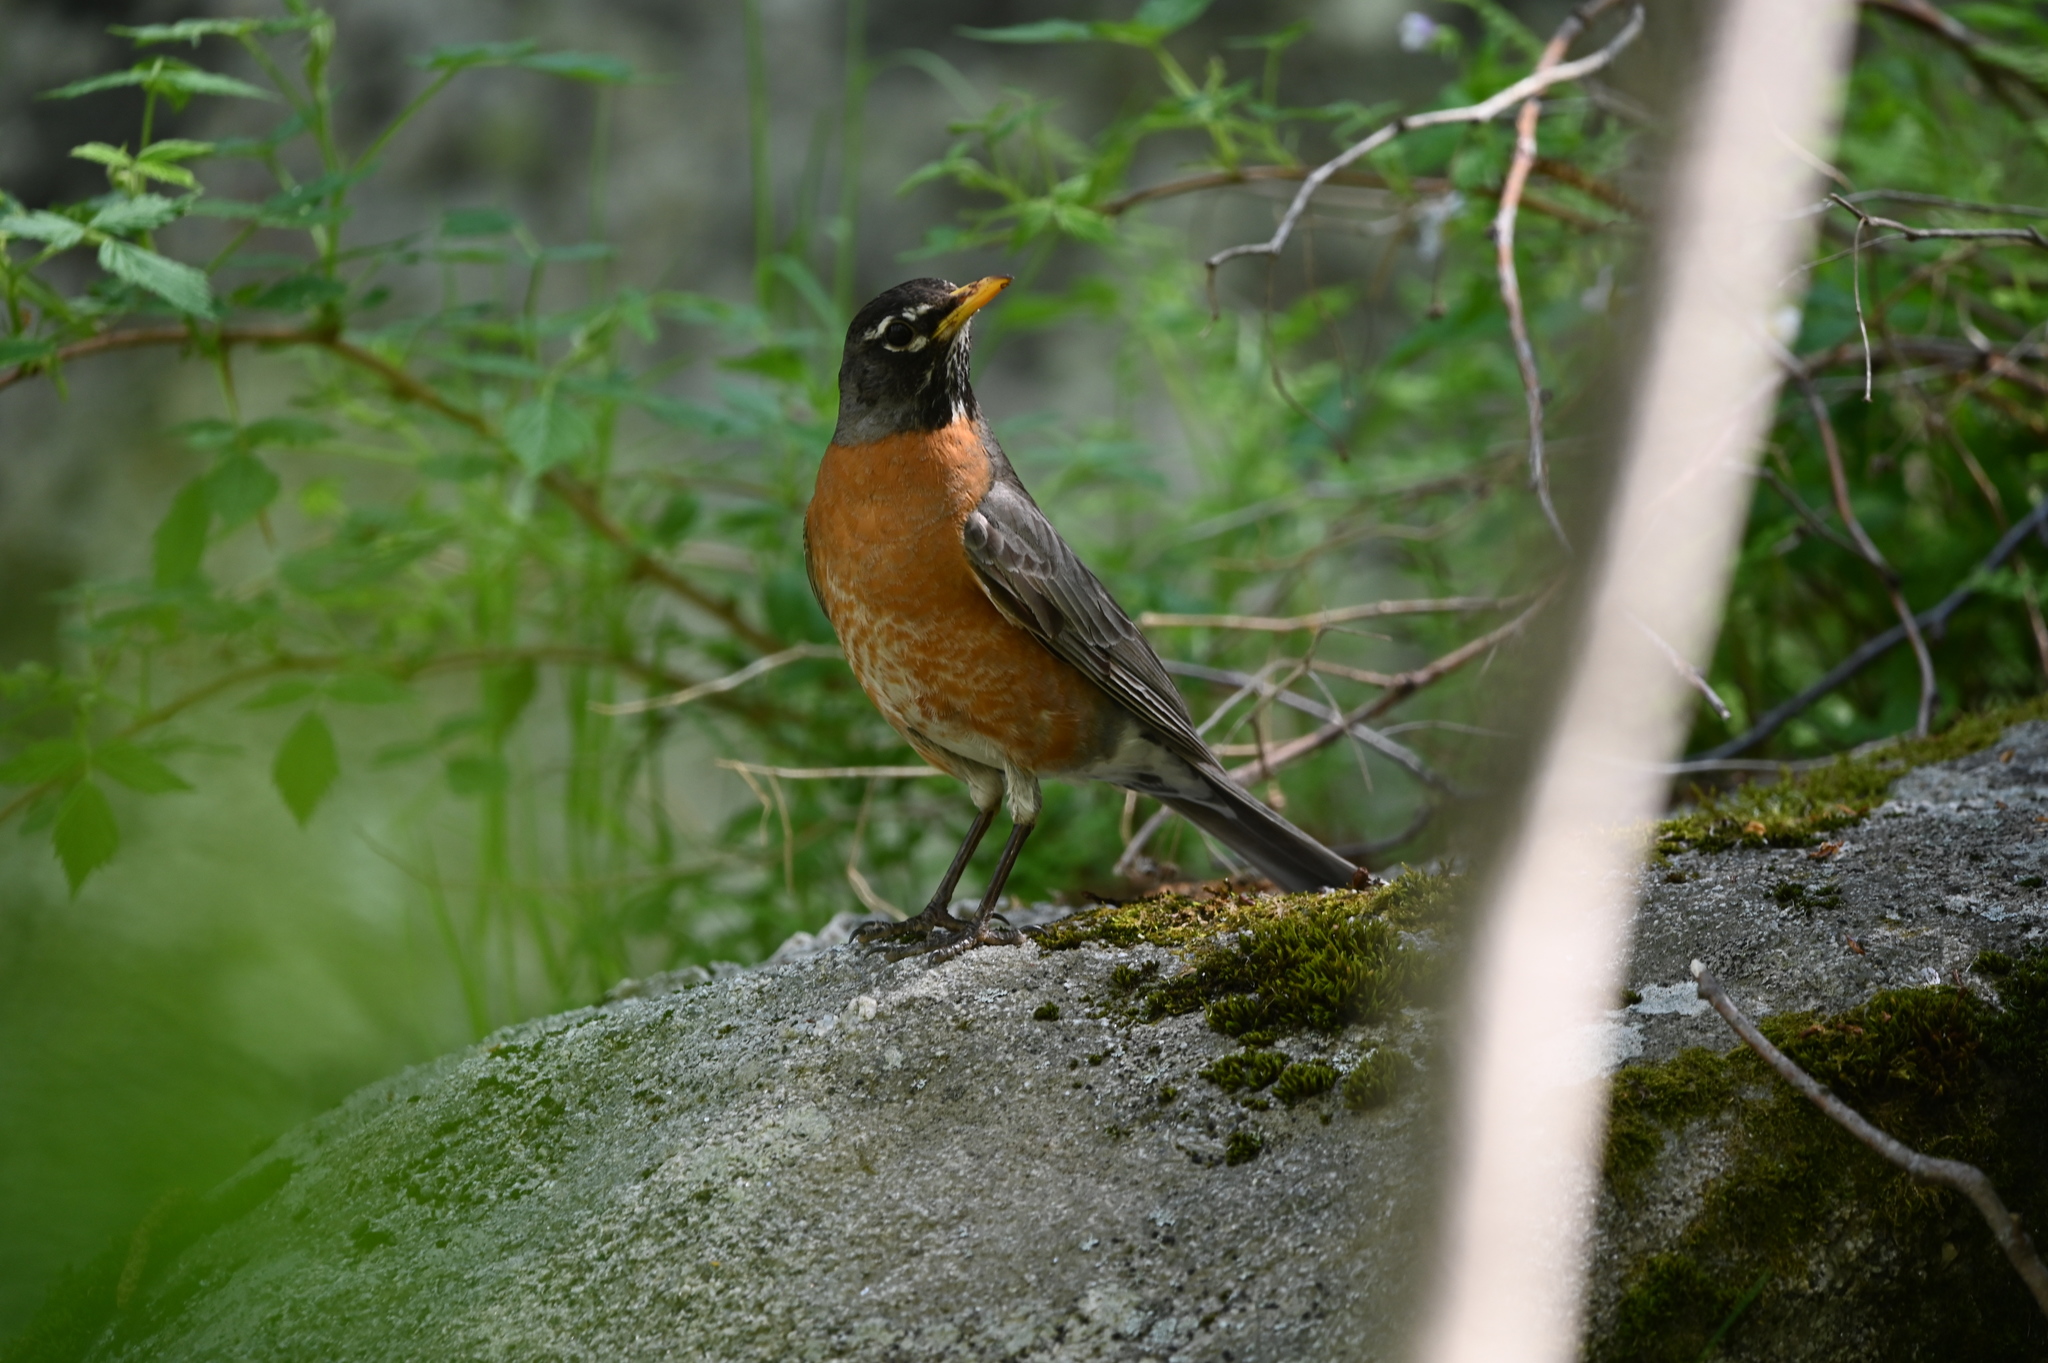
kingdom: Animalia
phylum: Chordata
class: Aves
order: Passeriformes
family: Turdidae
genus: Turdus
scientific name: Turdus migratorius
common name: American robin
